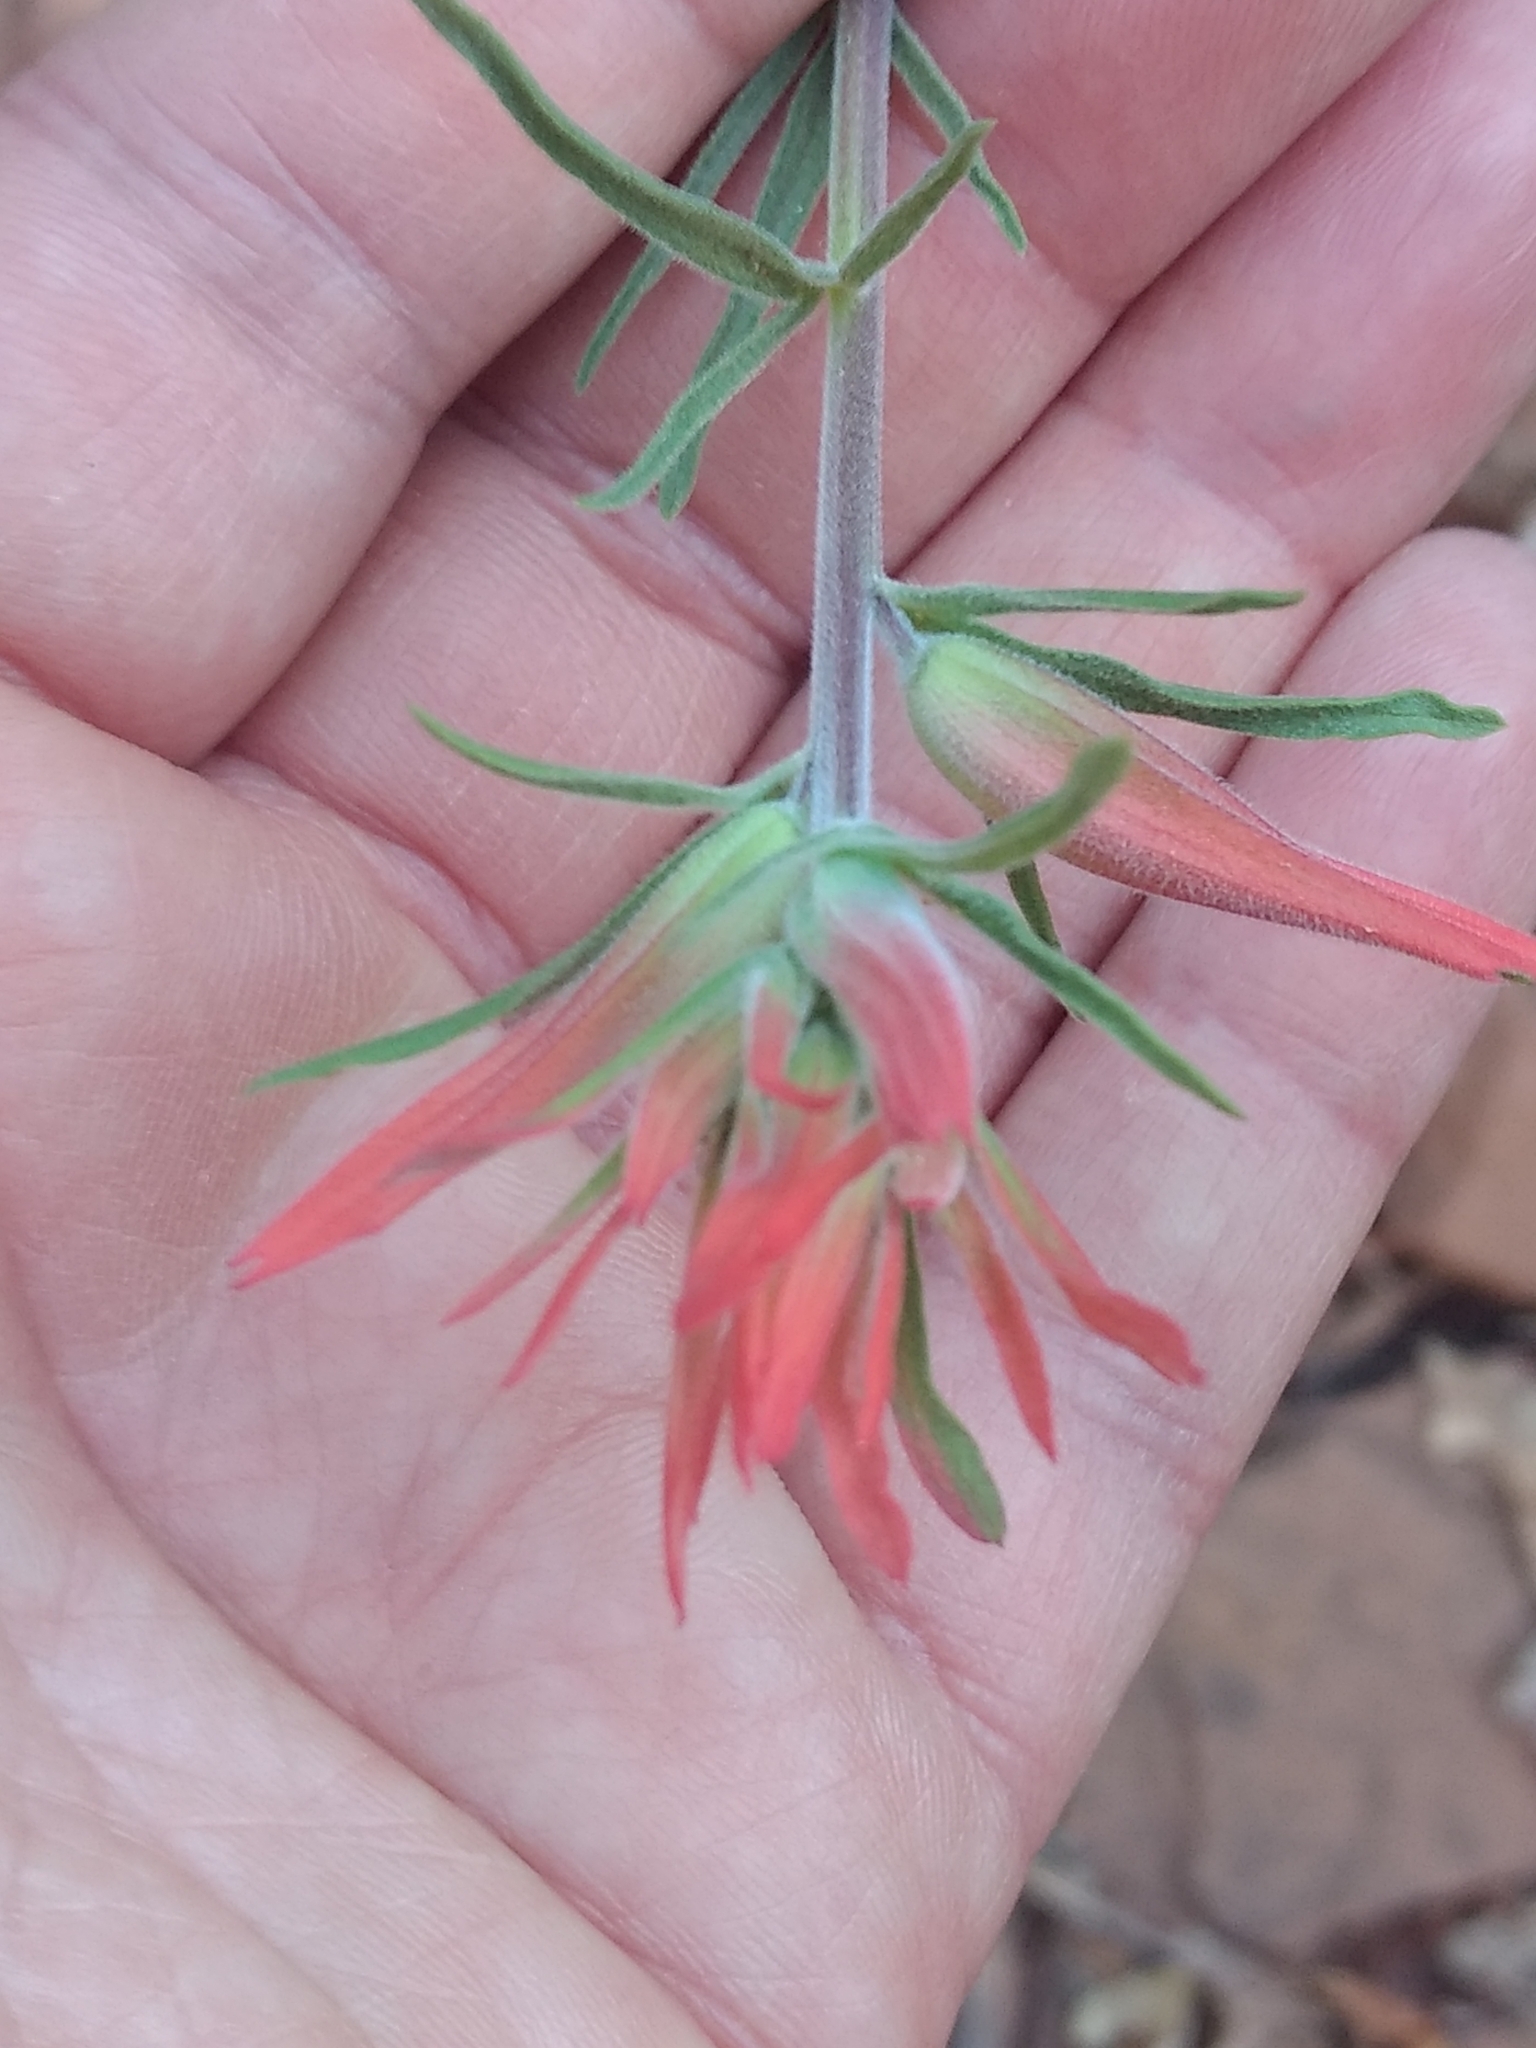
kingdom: Plantae
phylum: Tracheophyta
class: Magnoliopsida
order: Lamiales
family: Orobanchaceae
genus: Castilleja
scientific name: Castilleja linariifolia
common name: Wyoming paintbrush
